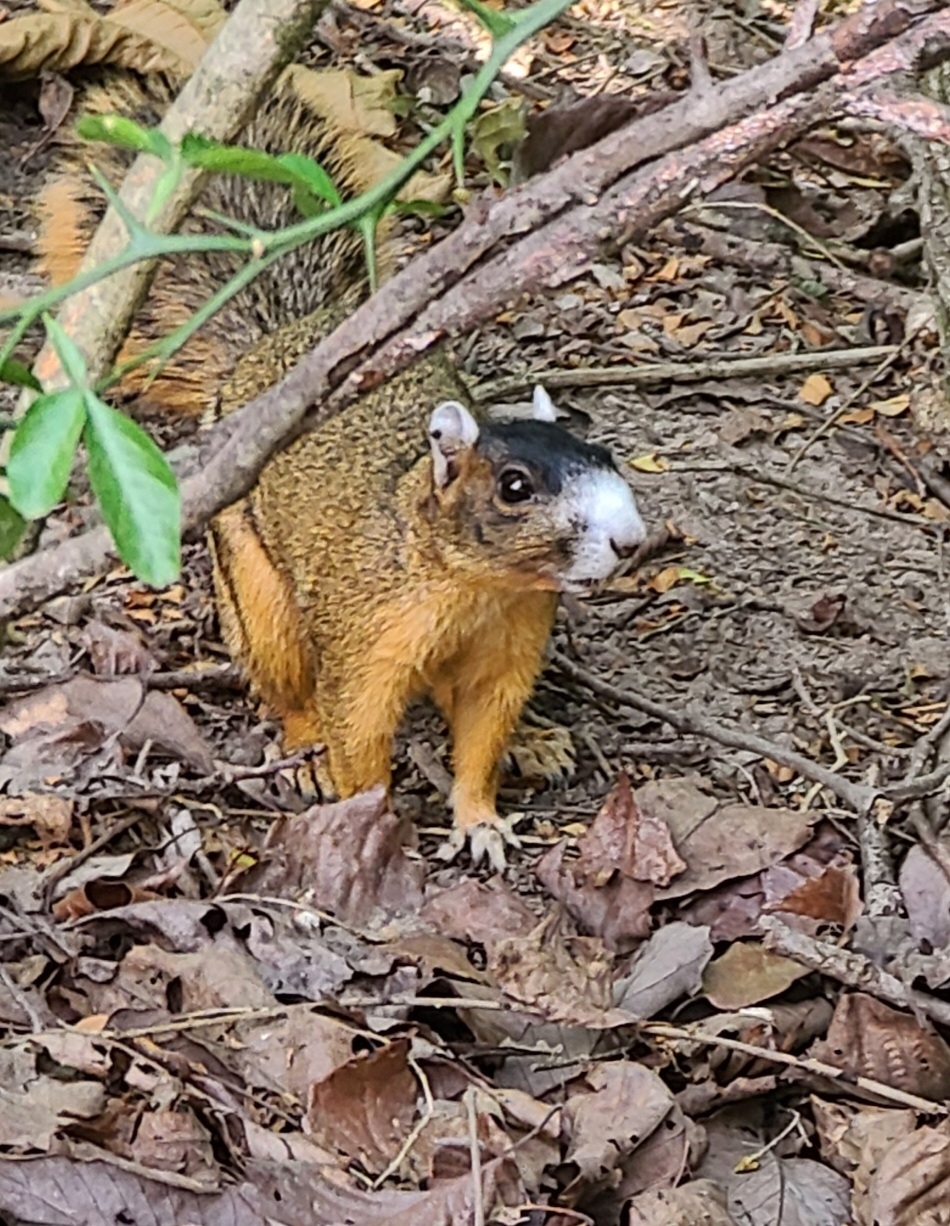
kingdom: Animalia
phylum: Chordata
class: Mammalia
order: Rodentia
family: Sciuridae
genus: Sciurus
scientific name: Sciurus niger
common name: Fox squirrel
